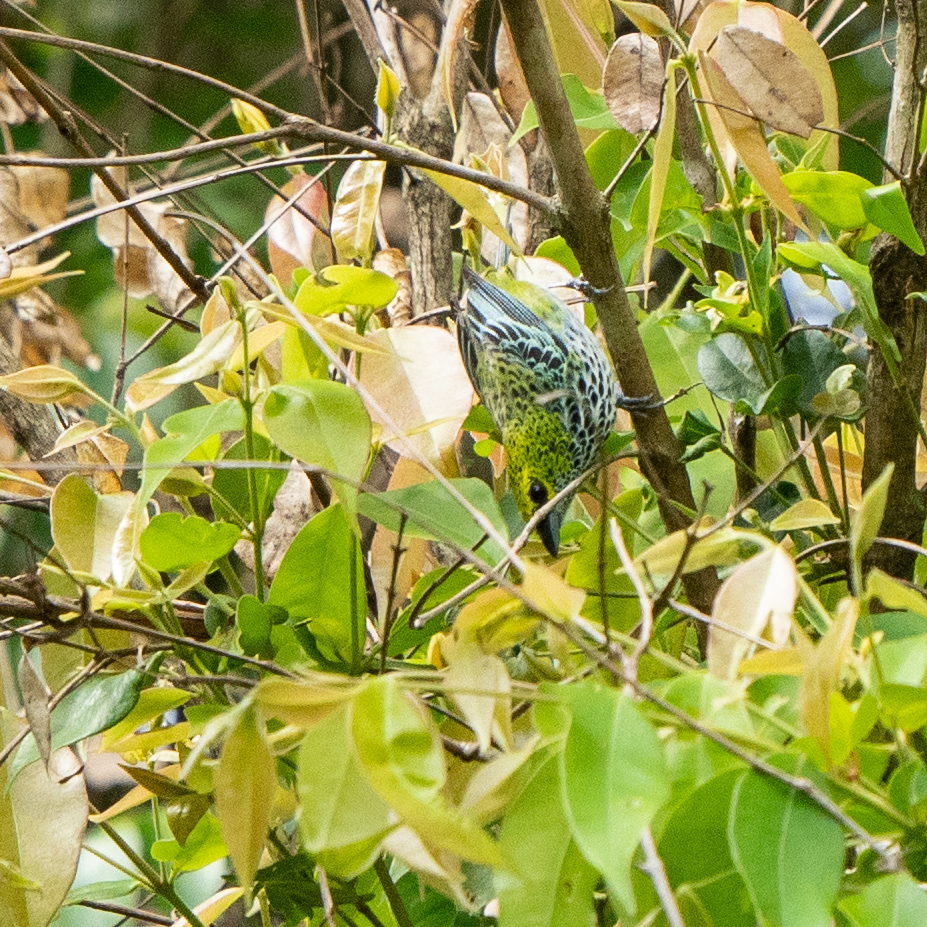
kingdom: Animalia
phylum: Chordata
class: Aves
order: Passeriformes
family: Thraupidae
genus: Ixothraupis
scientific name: Ixothraupis guttata
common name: Speckled tanager
